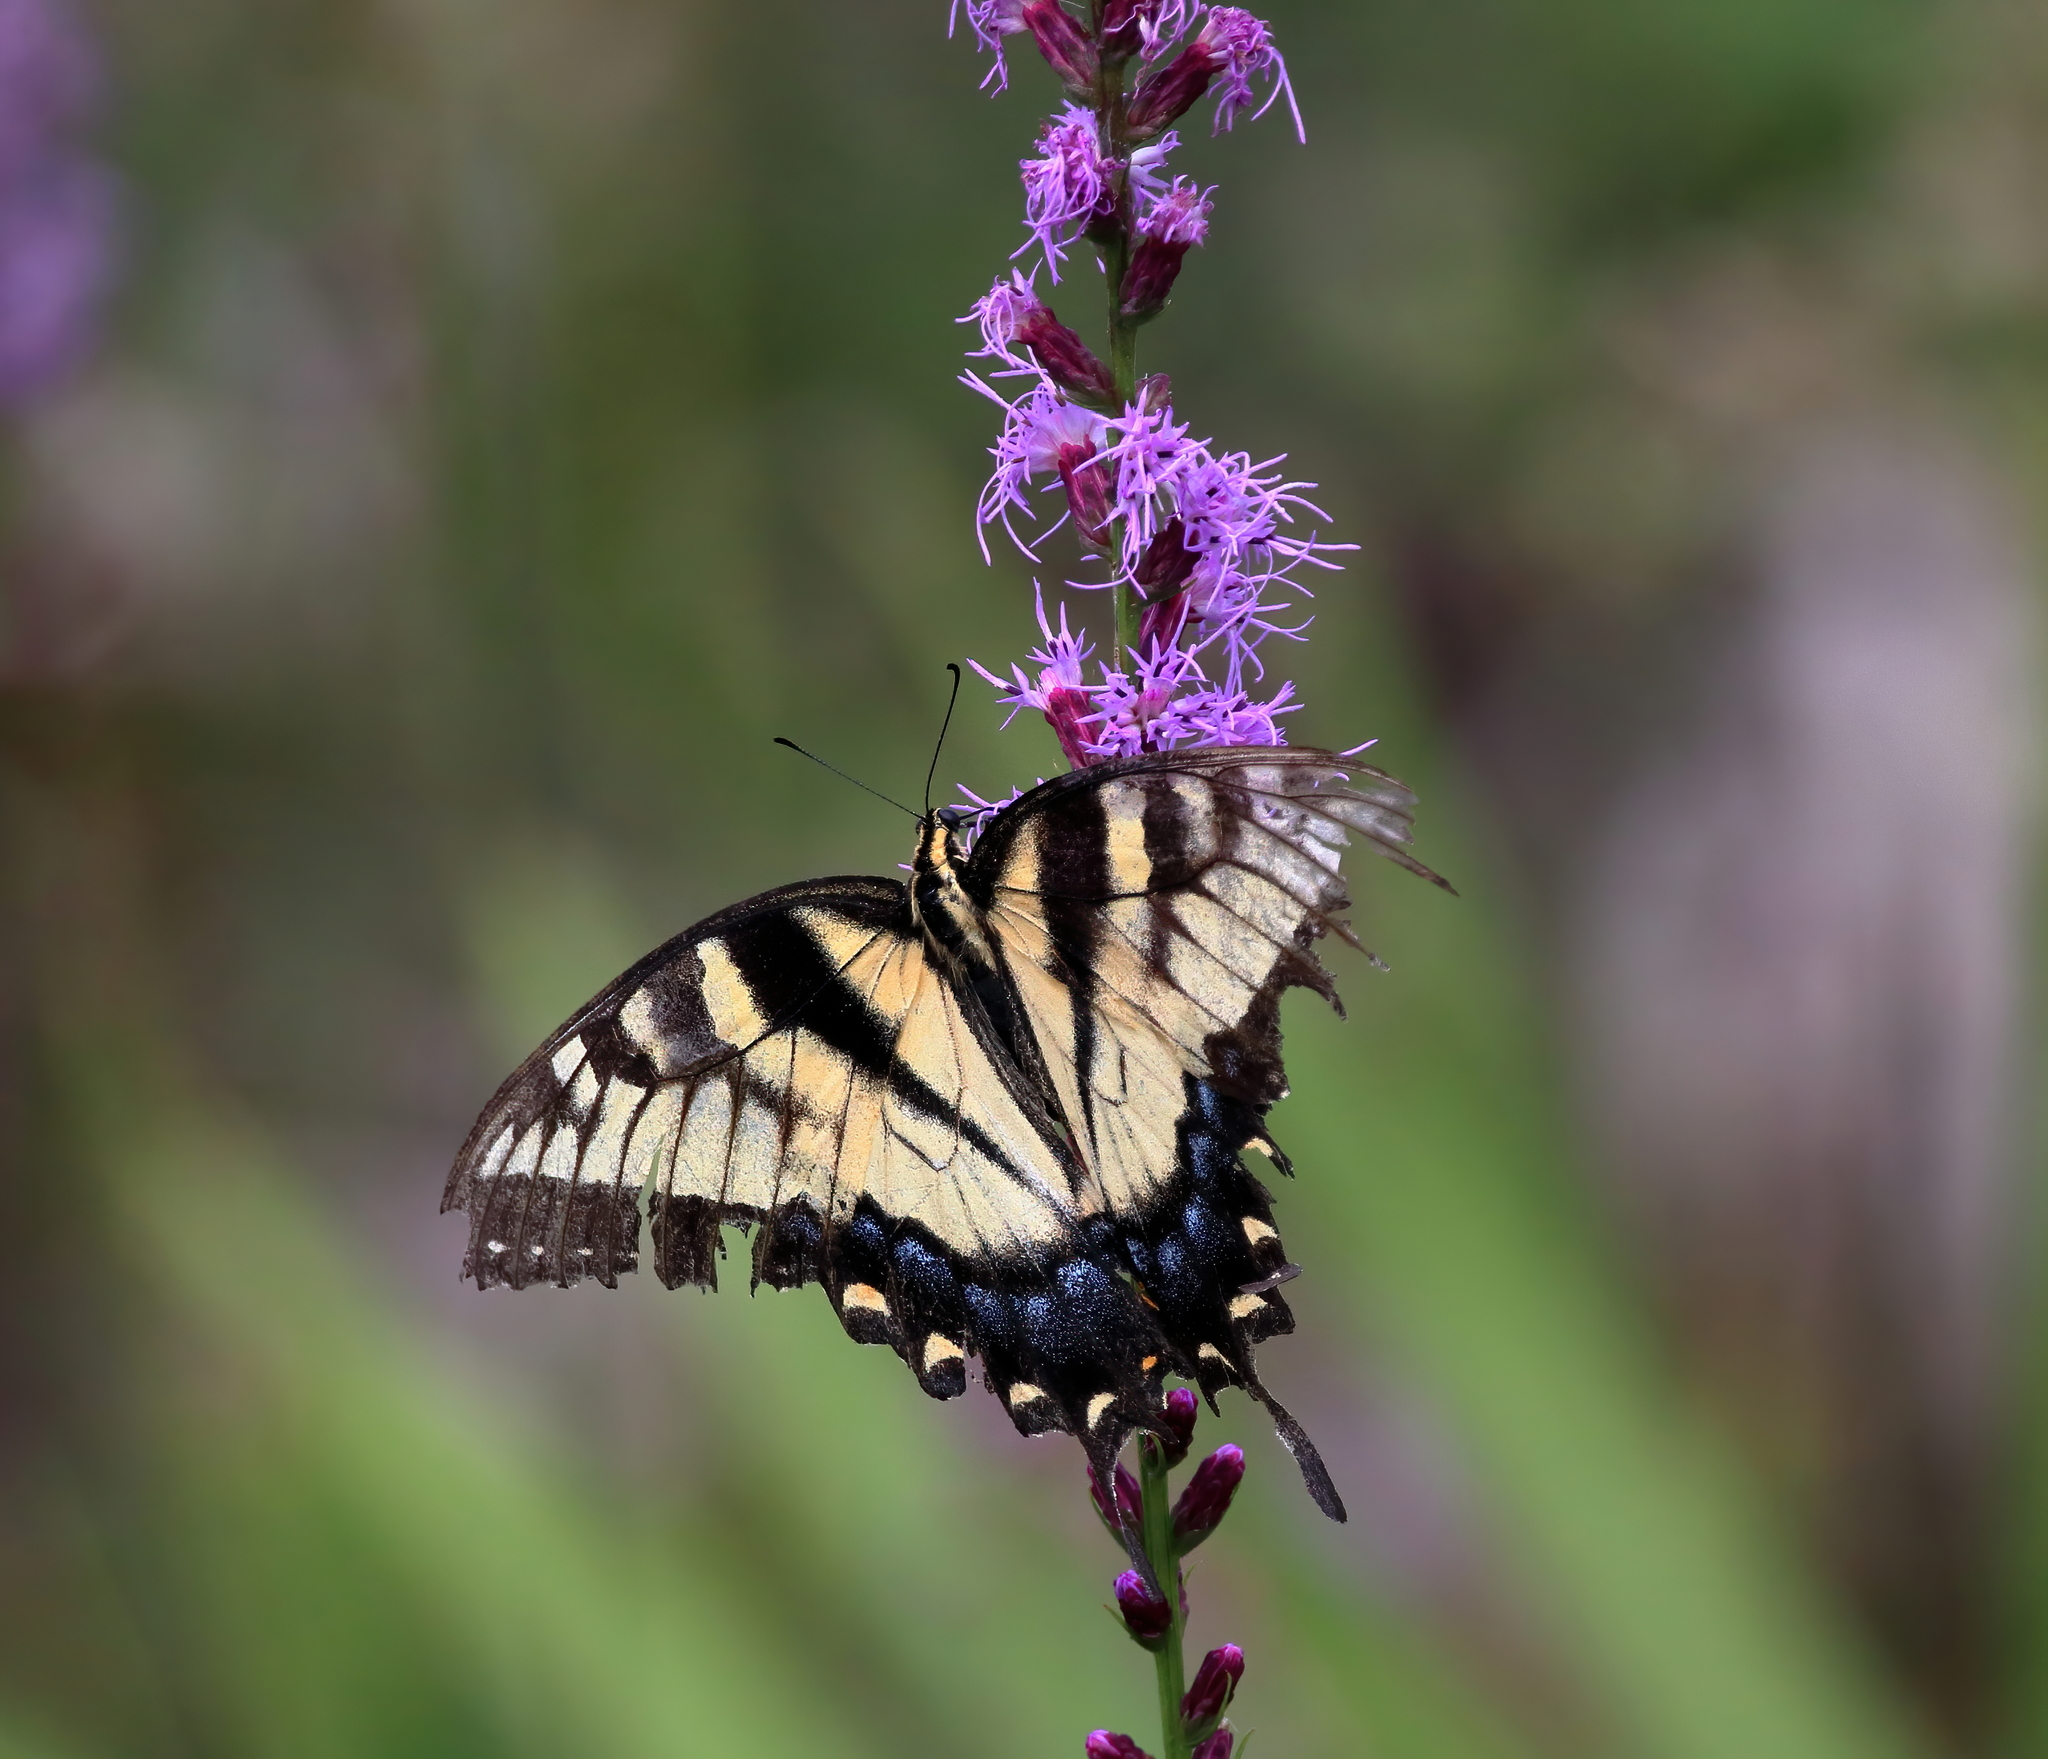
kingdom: Animalia
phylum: Arthropoda
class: Insecta
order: Lepidoptera
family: Papilionidae
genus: Papilio
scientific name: Papilio glaucus
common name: Tiger swallowtail
